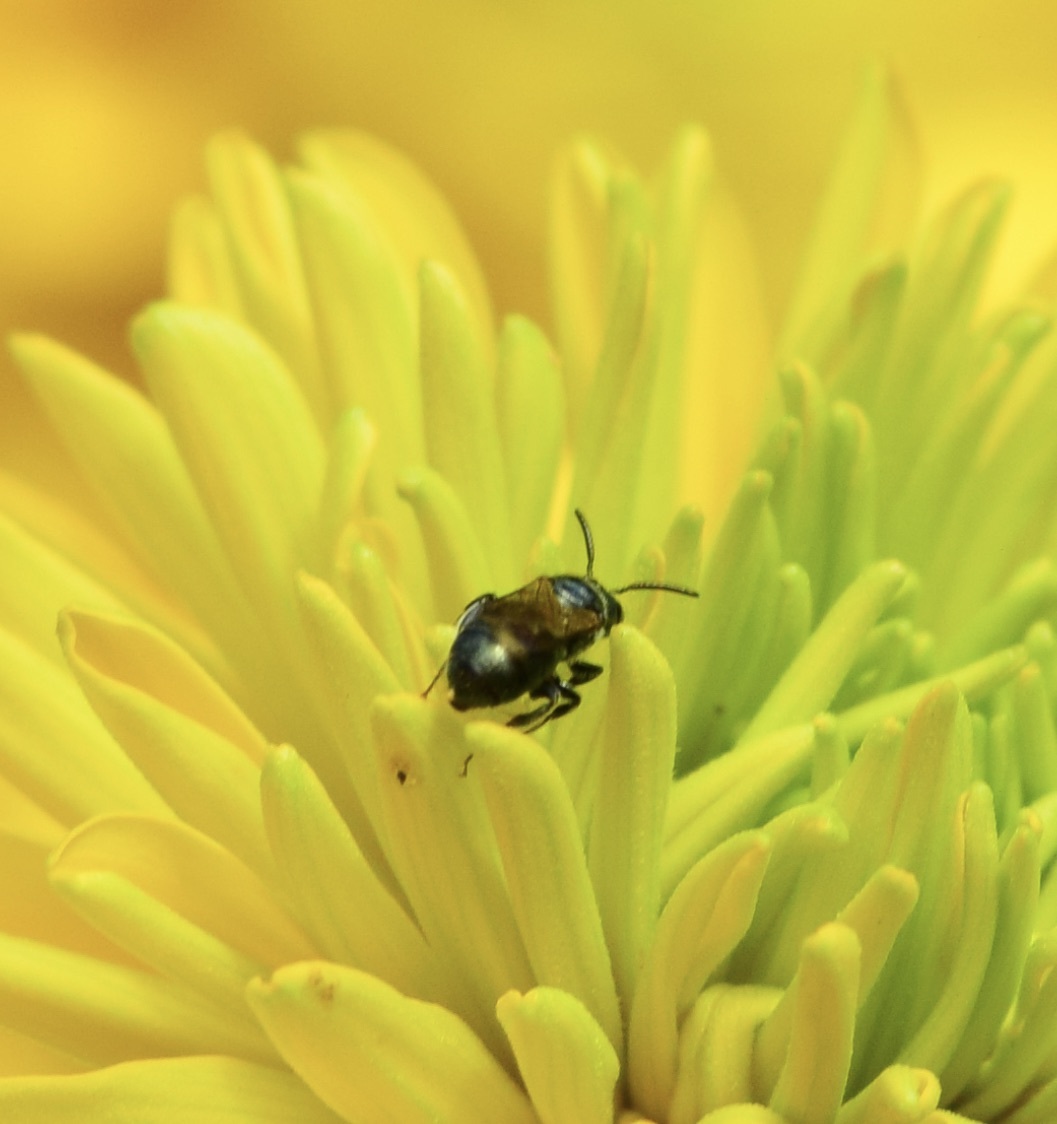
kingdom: Animalia
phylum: Arthropoda
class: Insecta
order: Hymenoptera
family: Apidae
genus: Ceratina
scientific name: Ceratina calcarata
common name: Spurred carpenter bee
